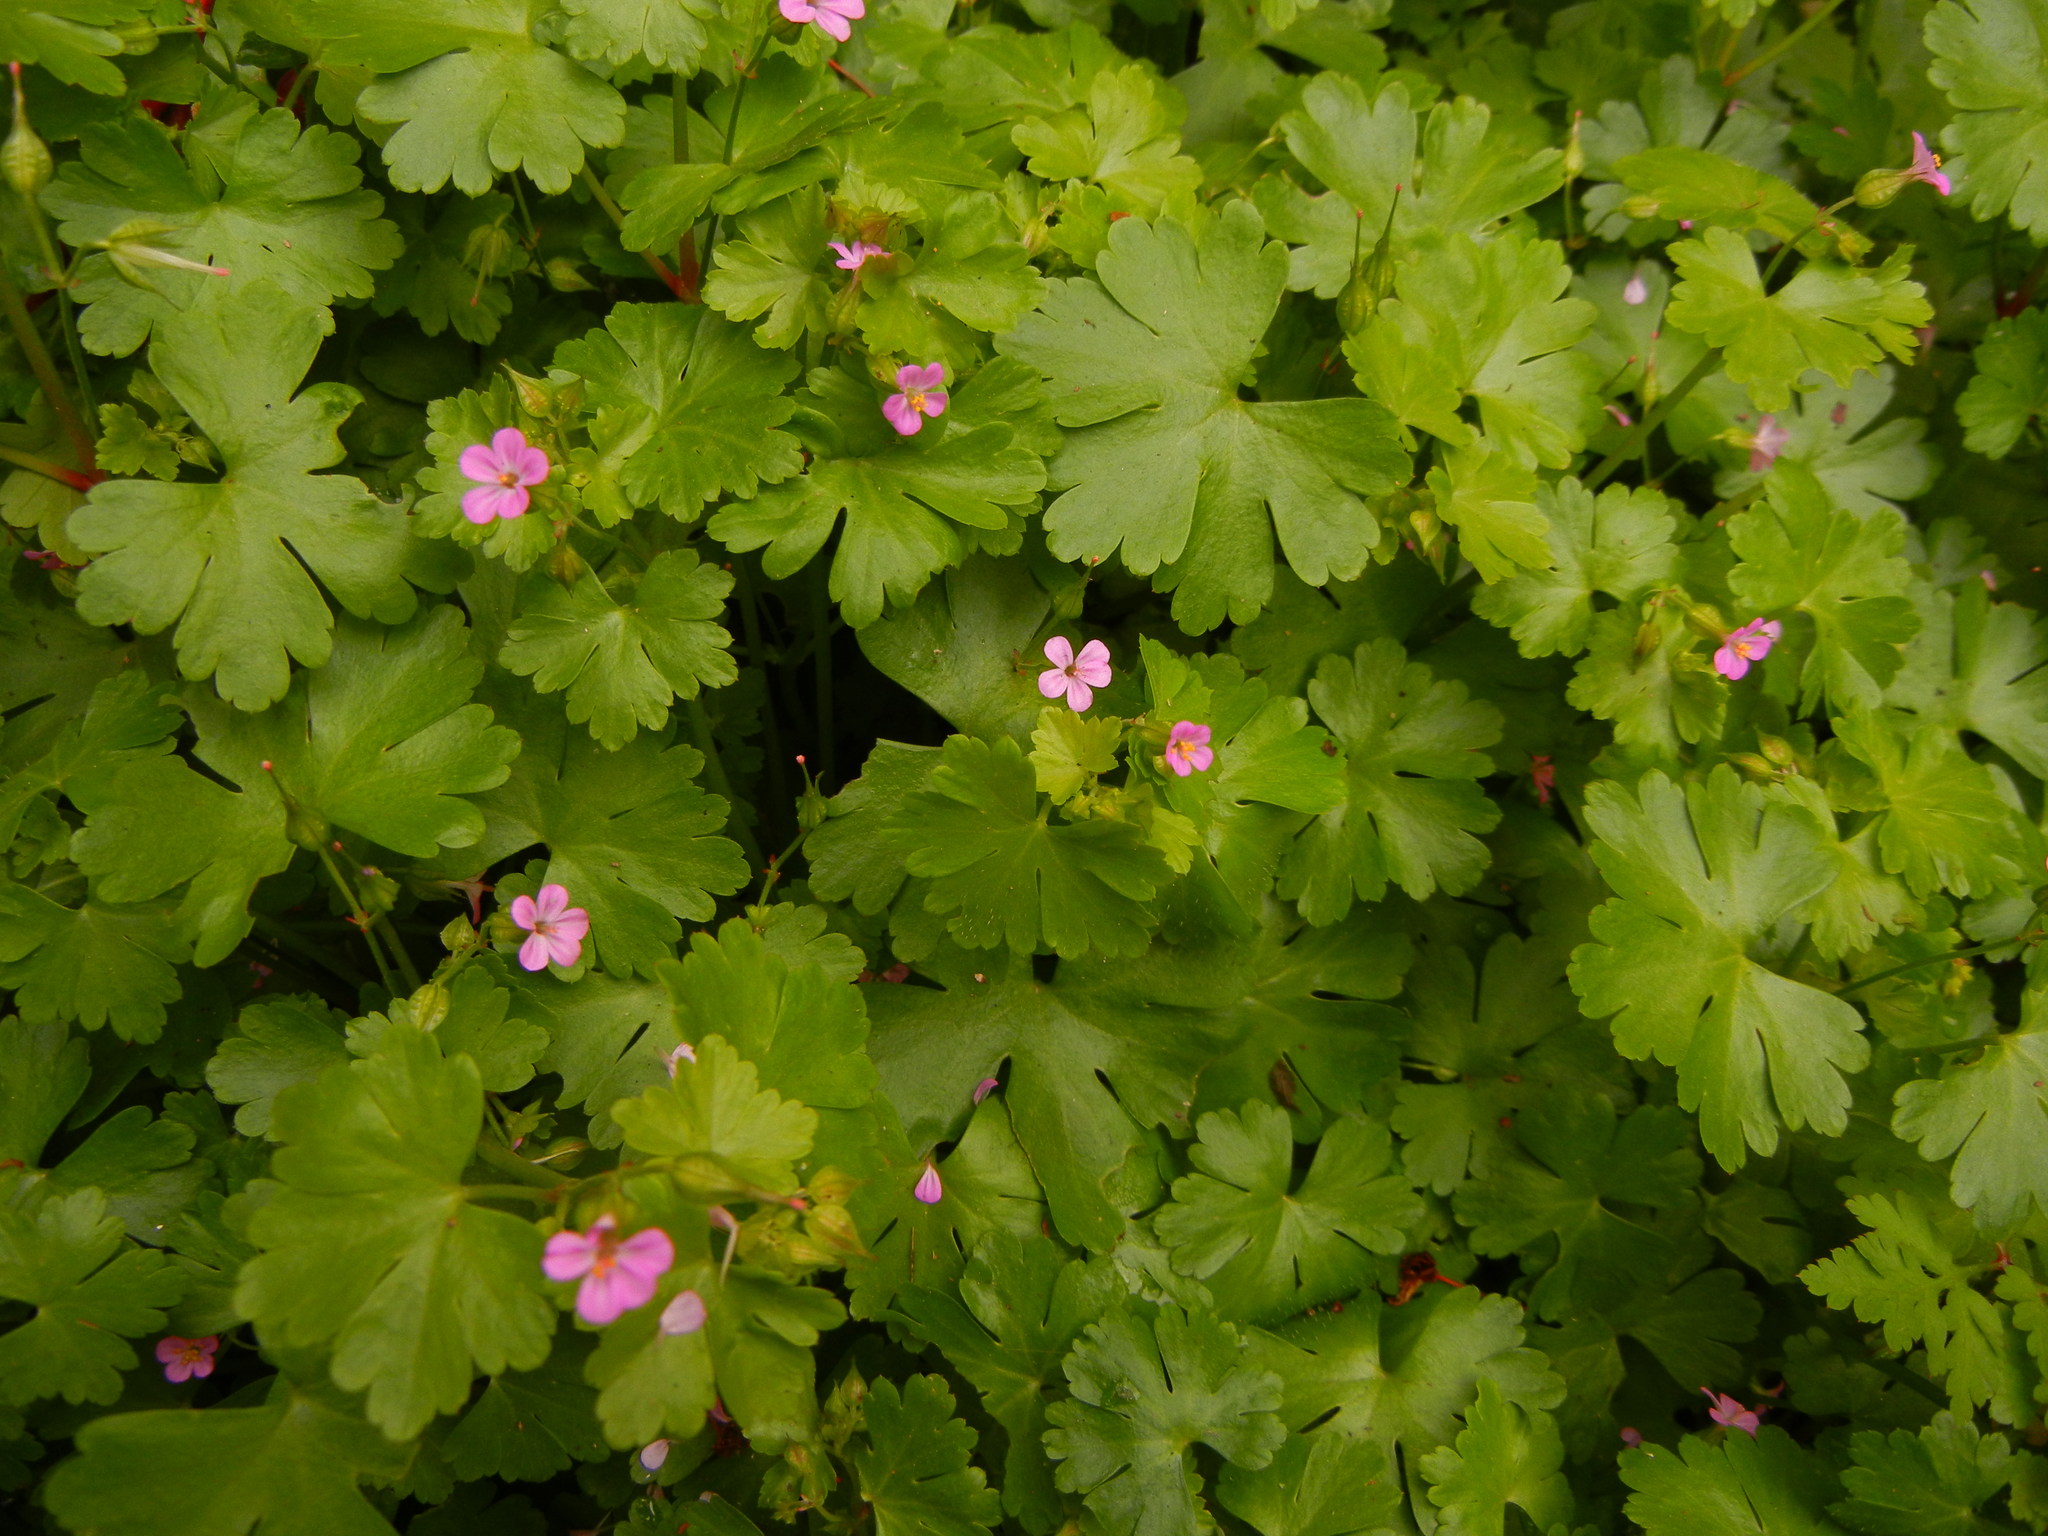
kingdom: Plantae
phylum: Tracheophyta
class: Magnoliopsida
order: Geraniales
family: Geraniaceae
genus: Geranium
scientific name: Geranium lucidum
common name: Shining crane's-bill
